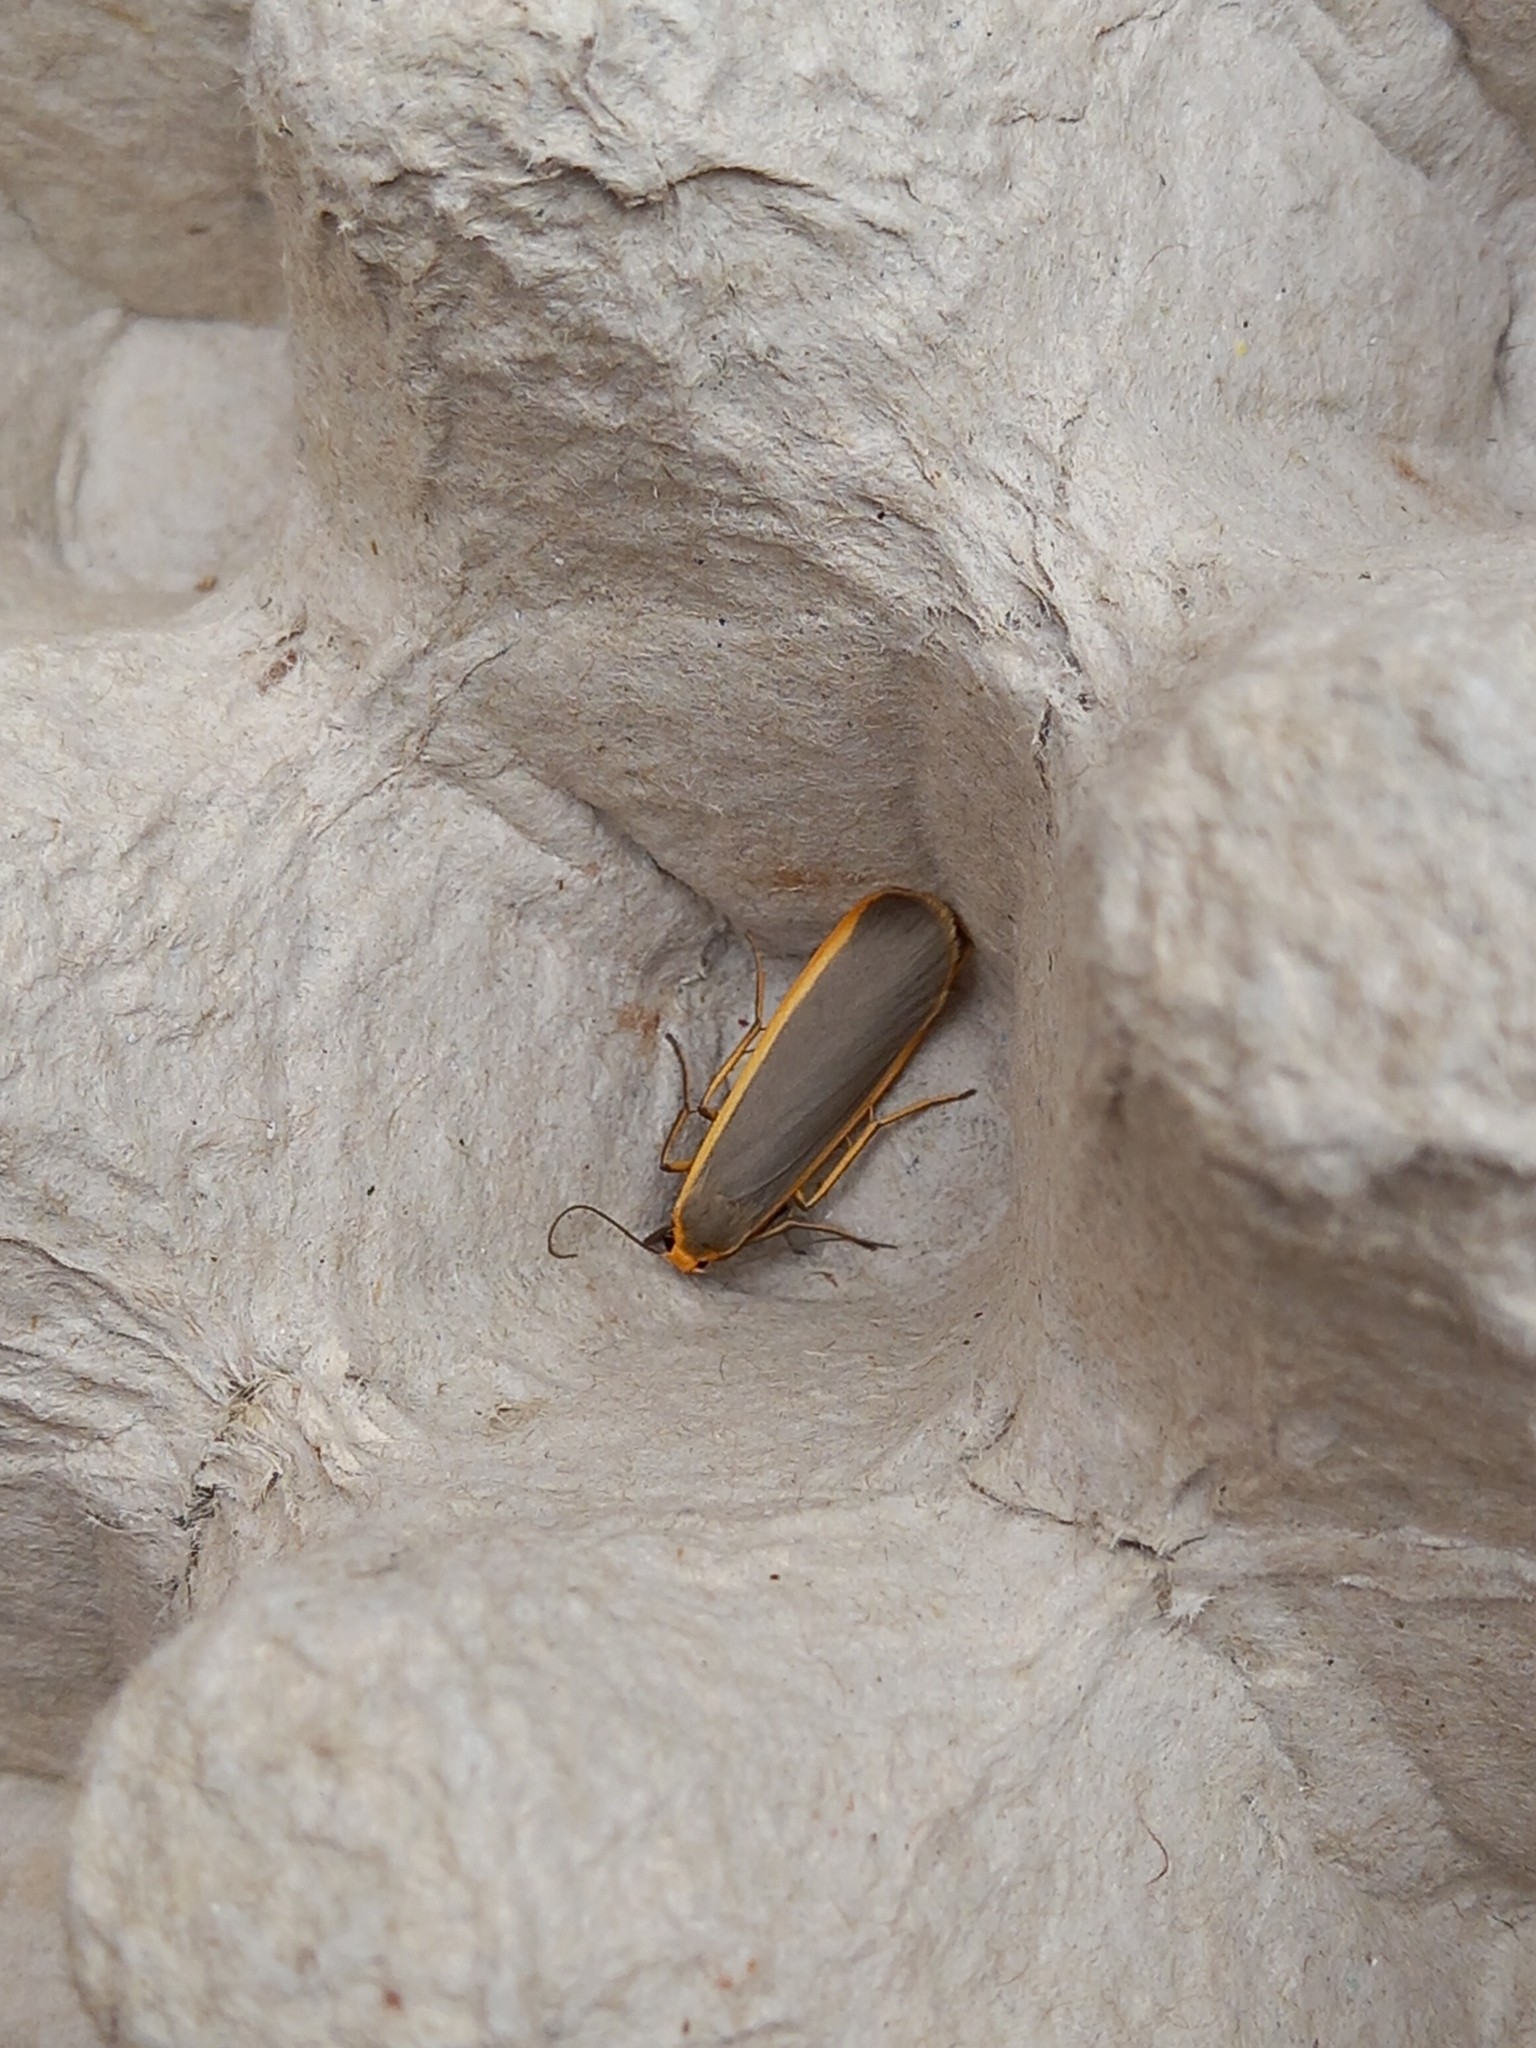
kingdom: Animalia
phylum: Arthropoda
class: Insecta
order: Lepidoptera
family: Erebidae
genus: Nyea
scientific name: Nyea lurideola
